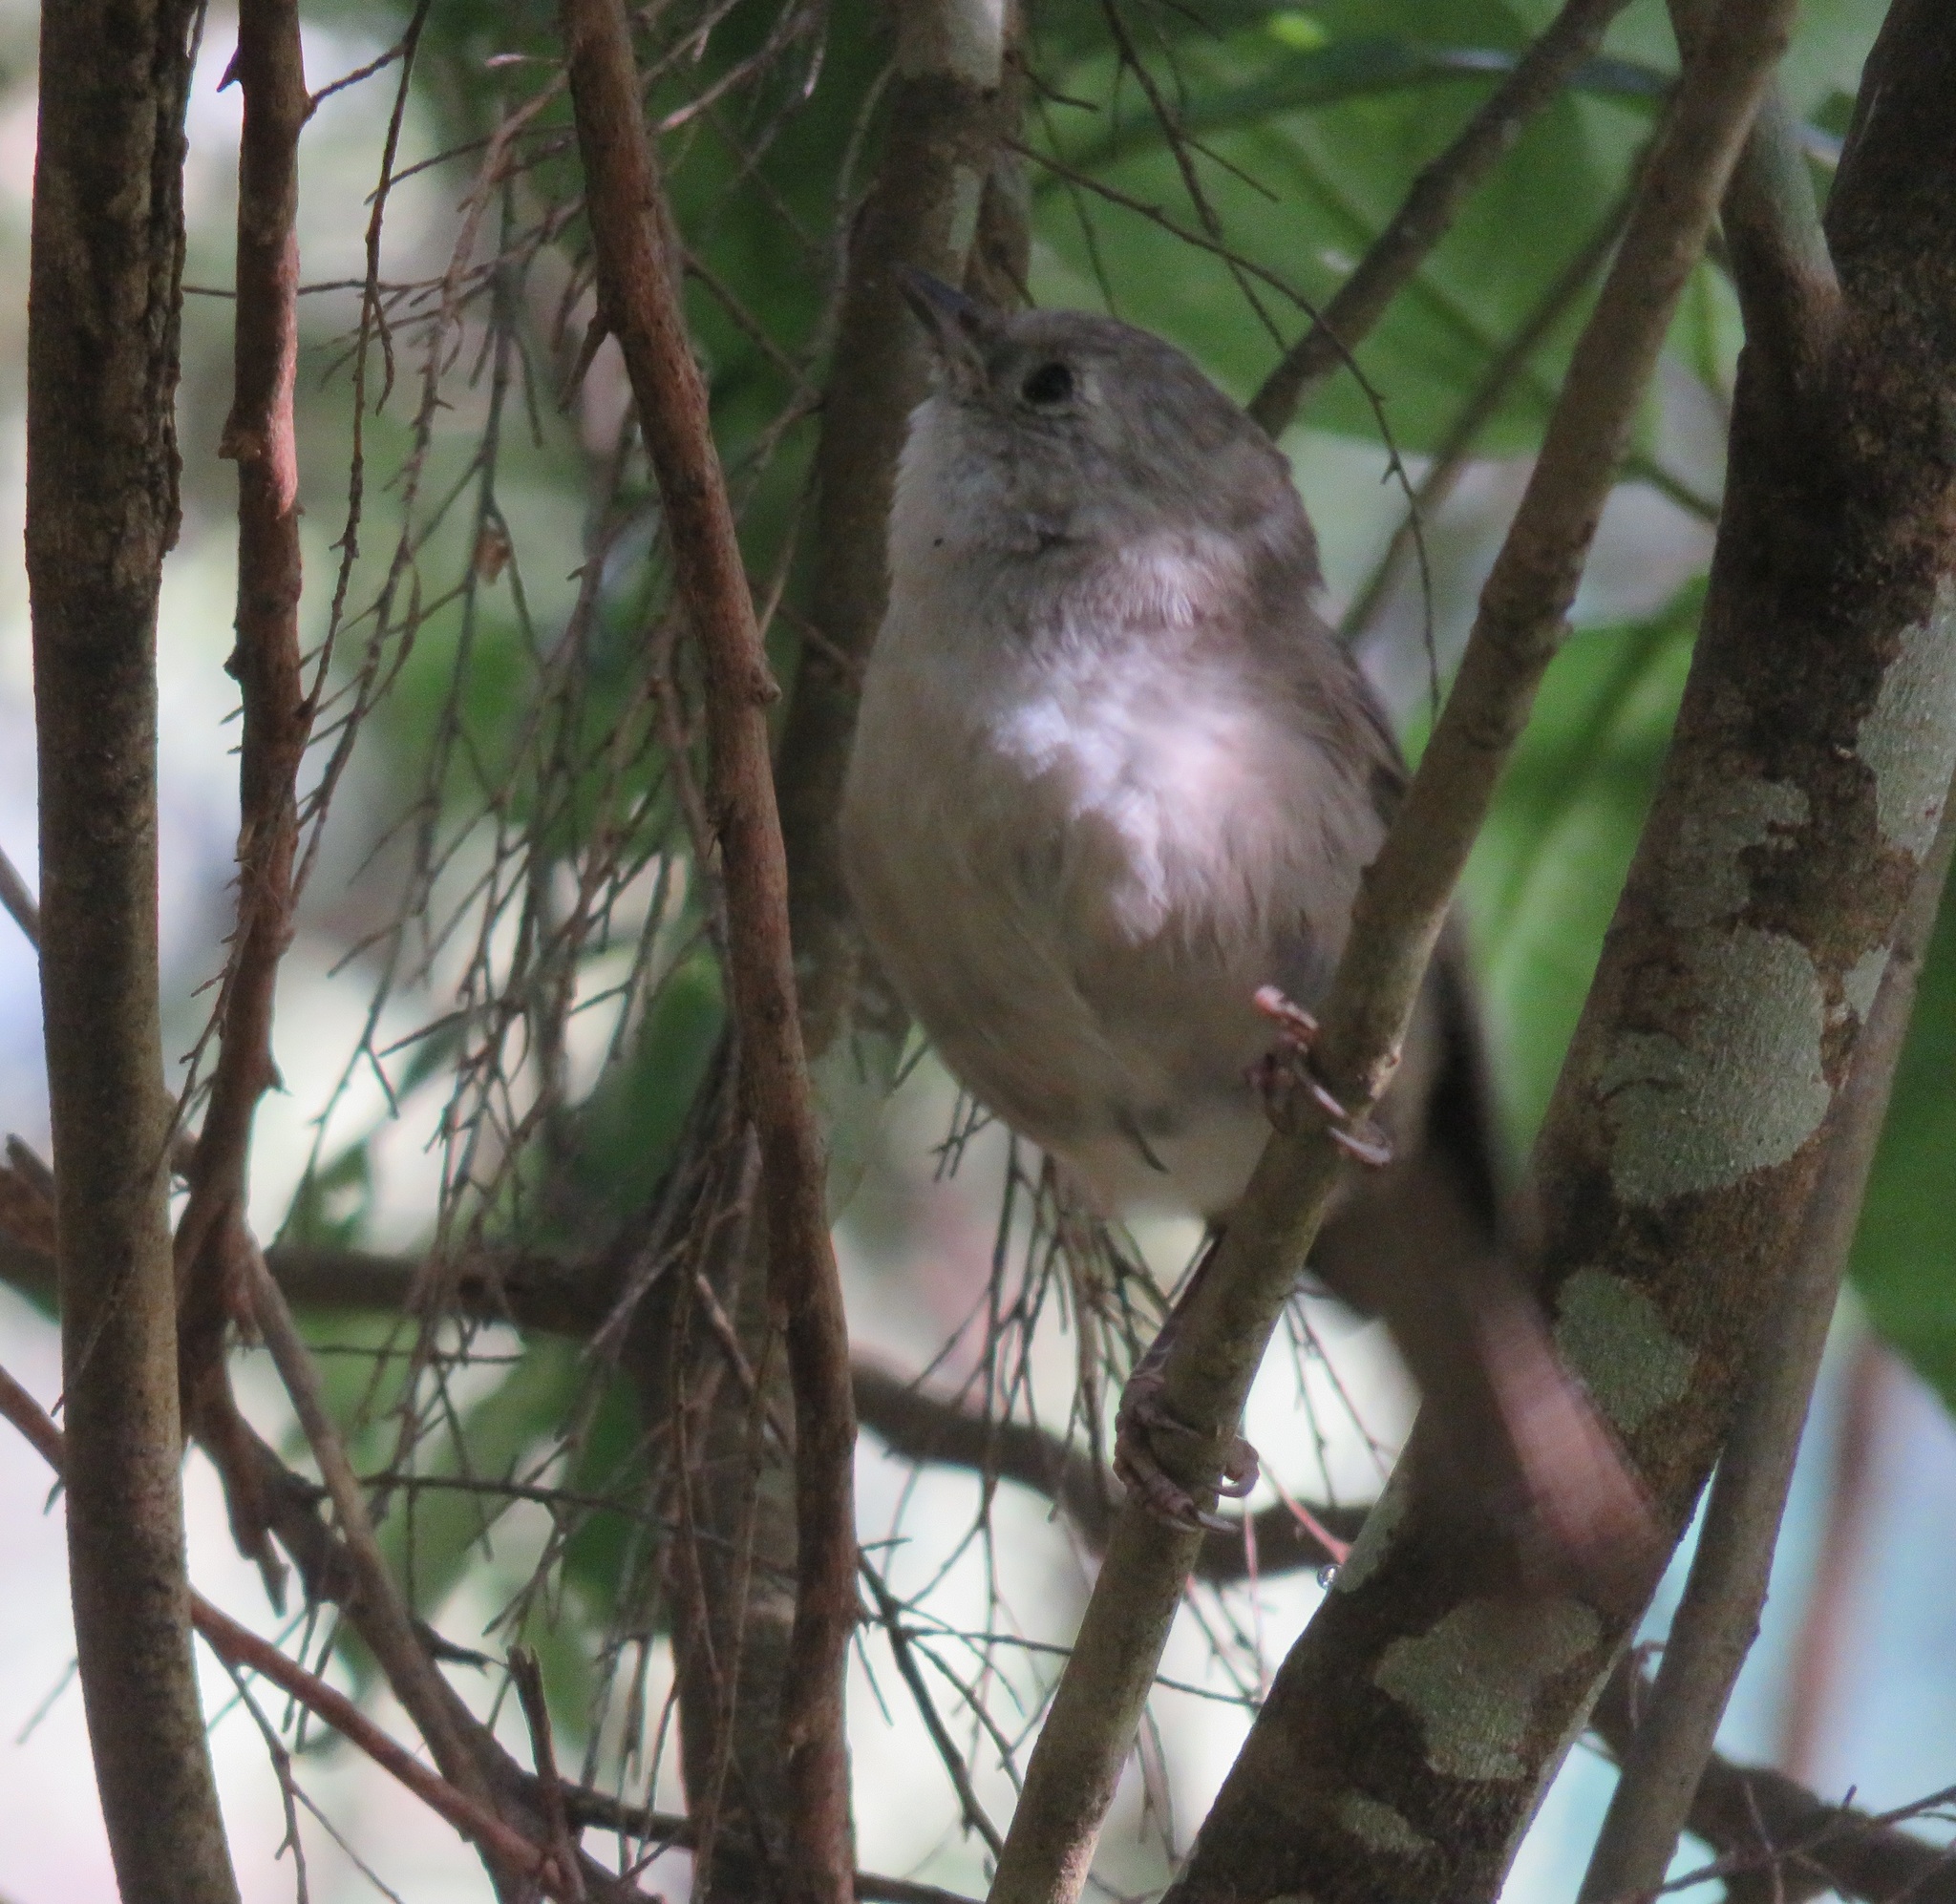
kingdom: Animalia
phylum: Chordata
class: Aves
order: Passeriformes
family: Acanthizidae
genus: Mohoua
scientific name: Mohoua albicilla
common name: Whitehead
